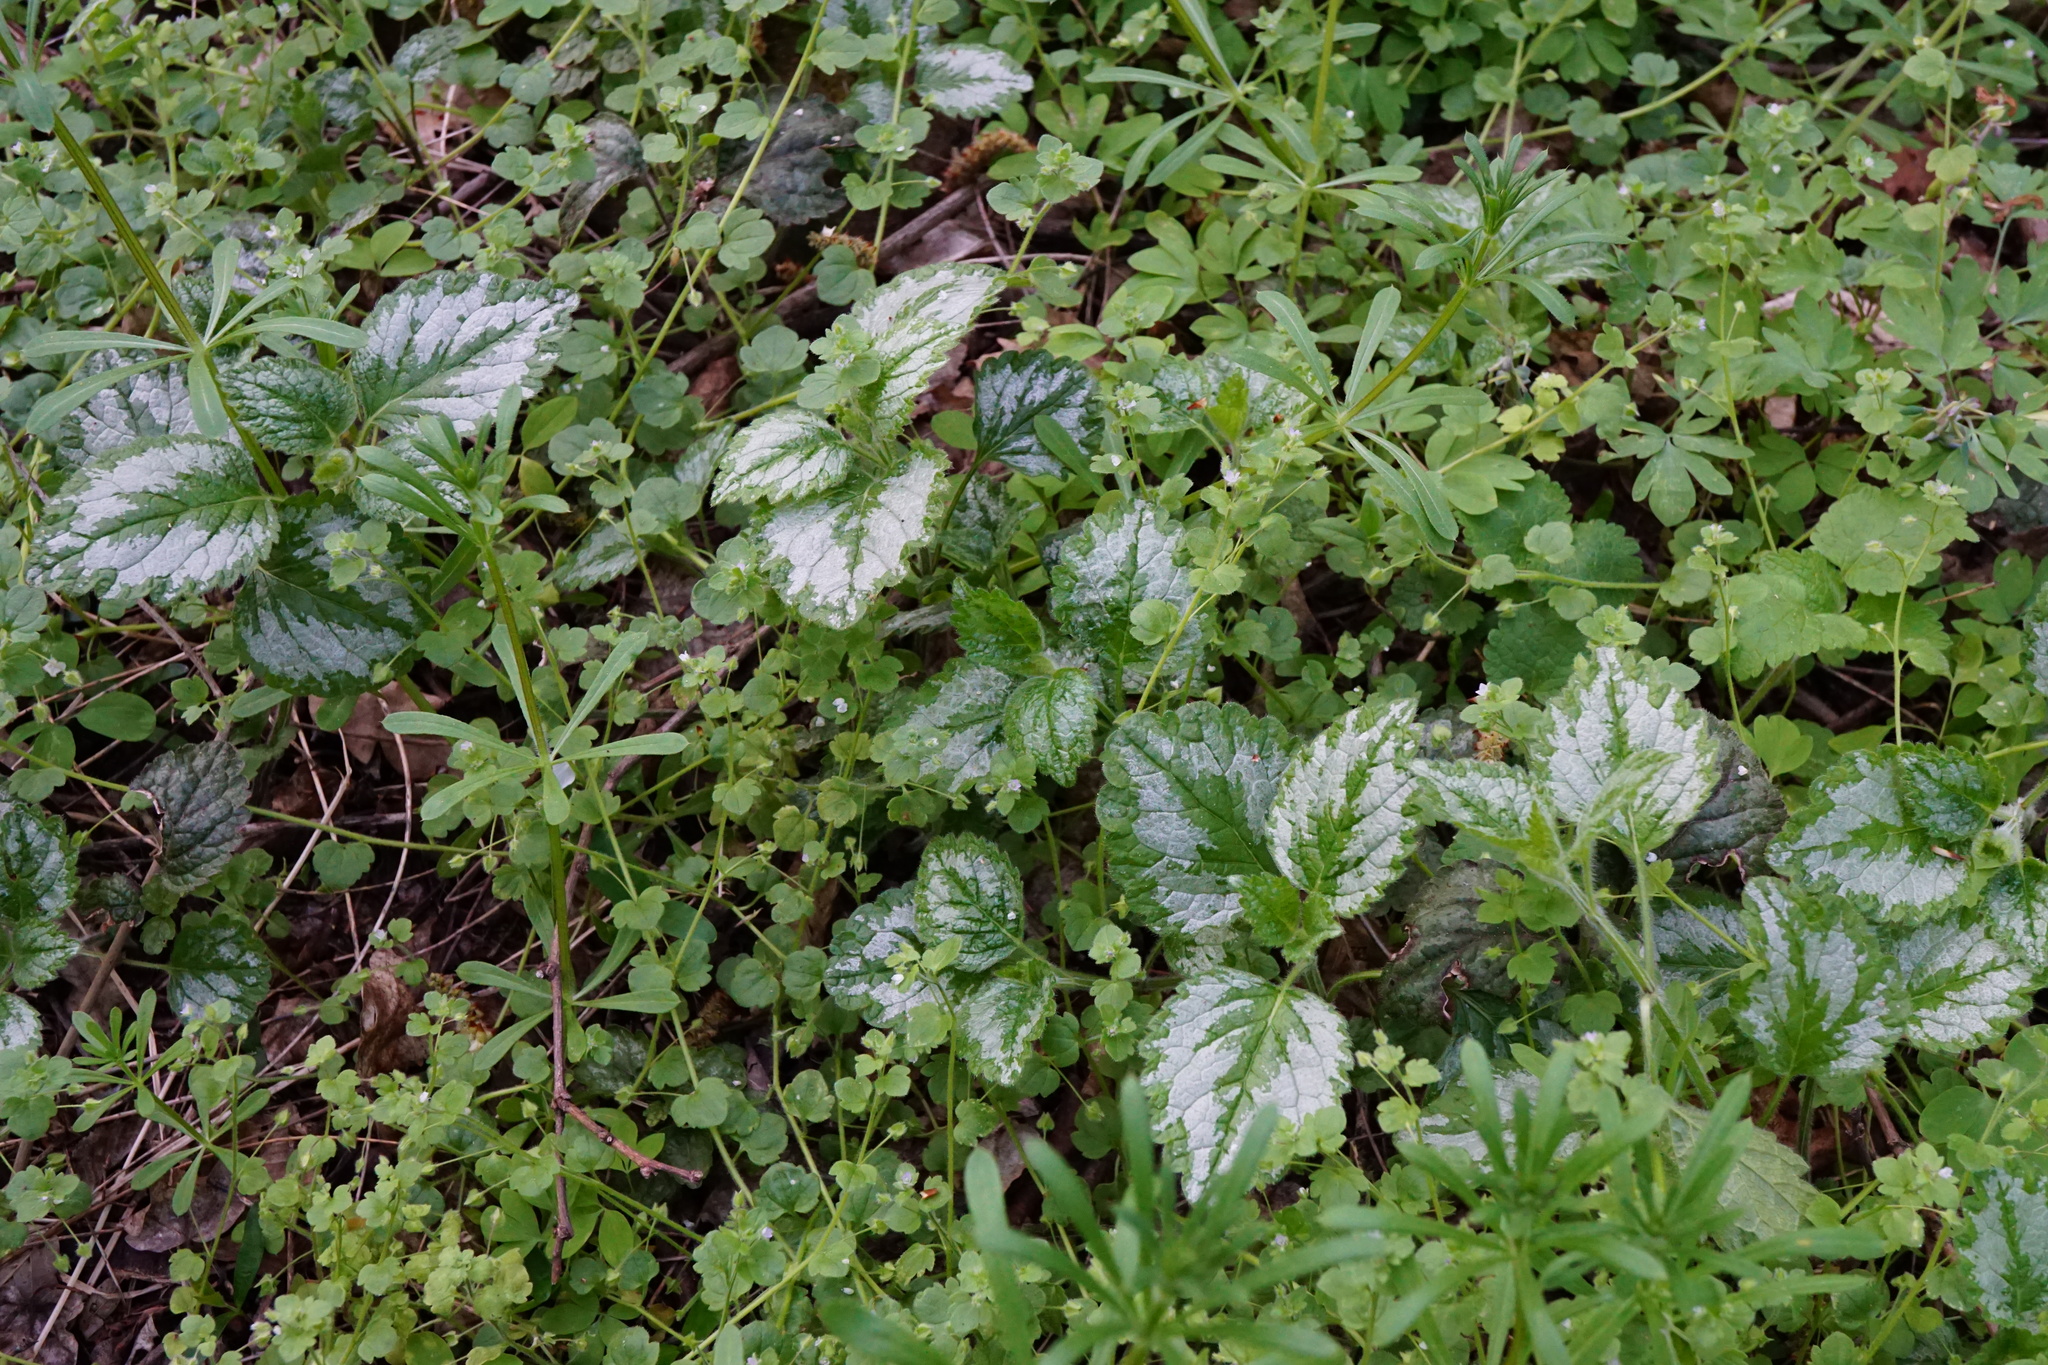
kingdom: Plantae
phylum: Tracheophyta
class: Magnoliopsida
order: Lamiales
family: Lamiaceae
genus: Lamium
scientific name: Lamium galeobdolon
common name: Yellow archangel
